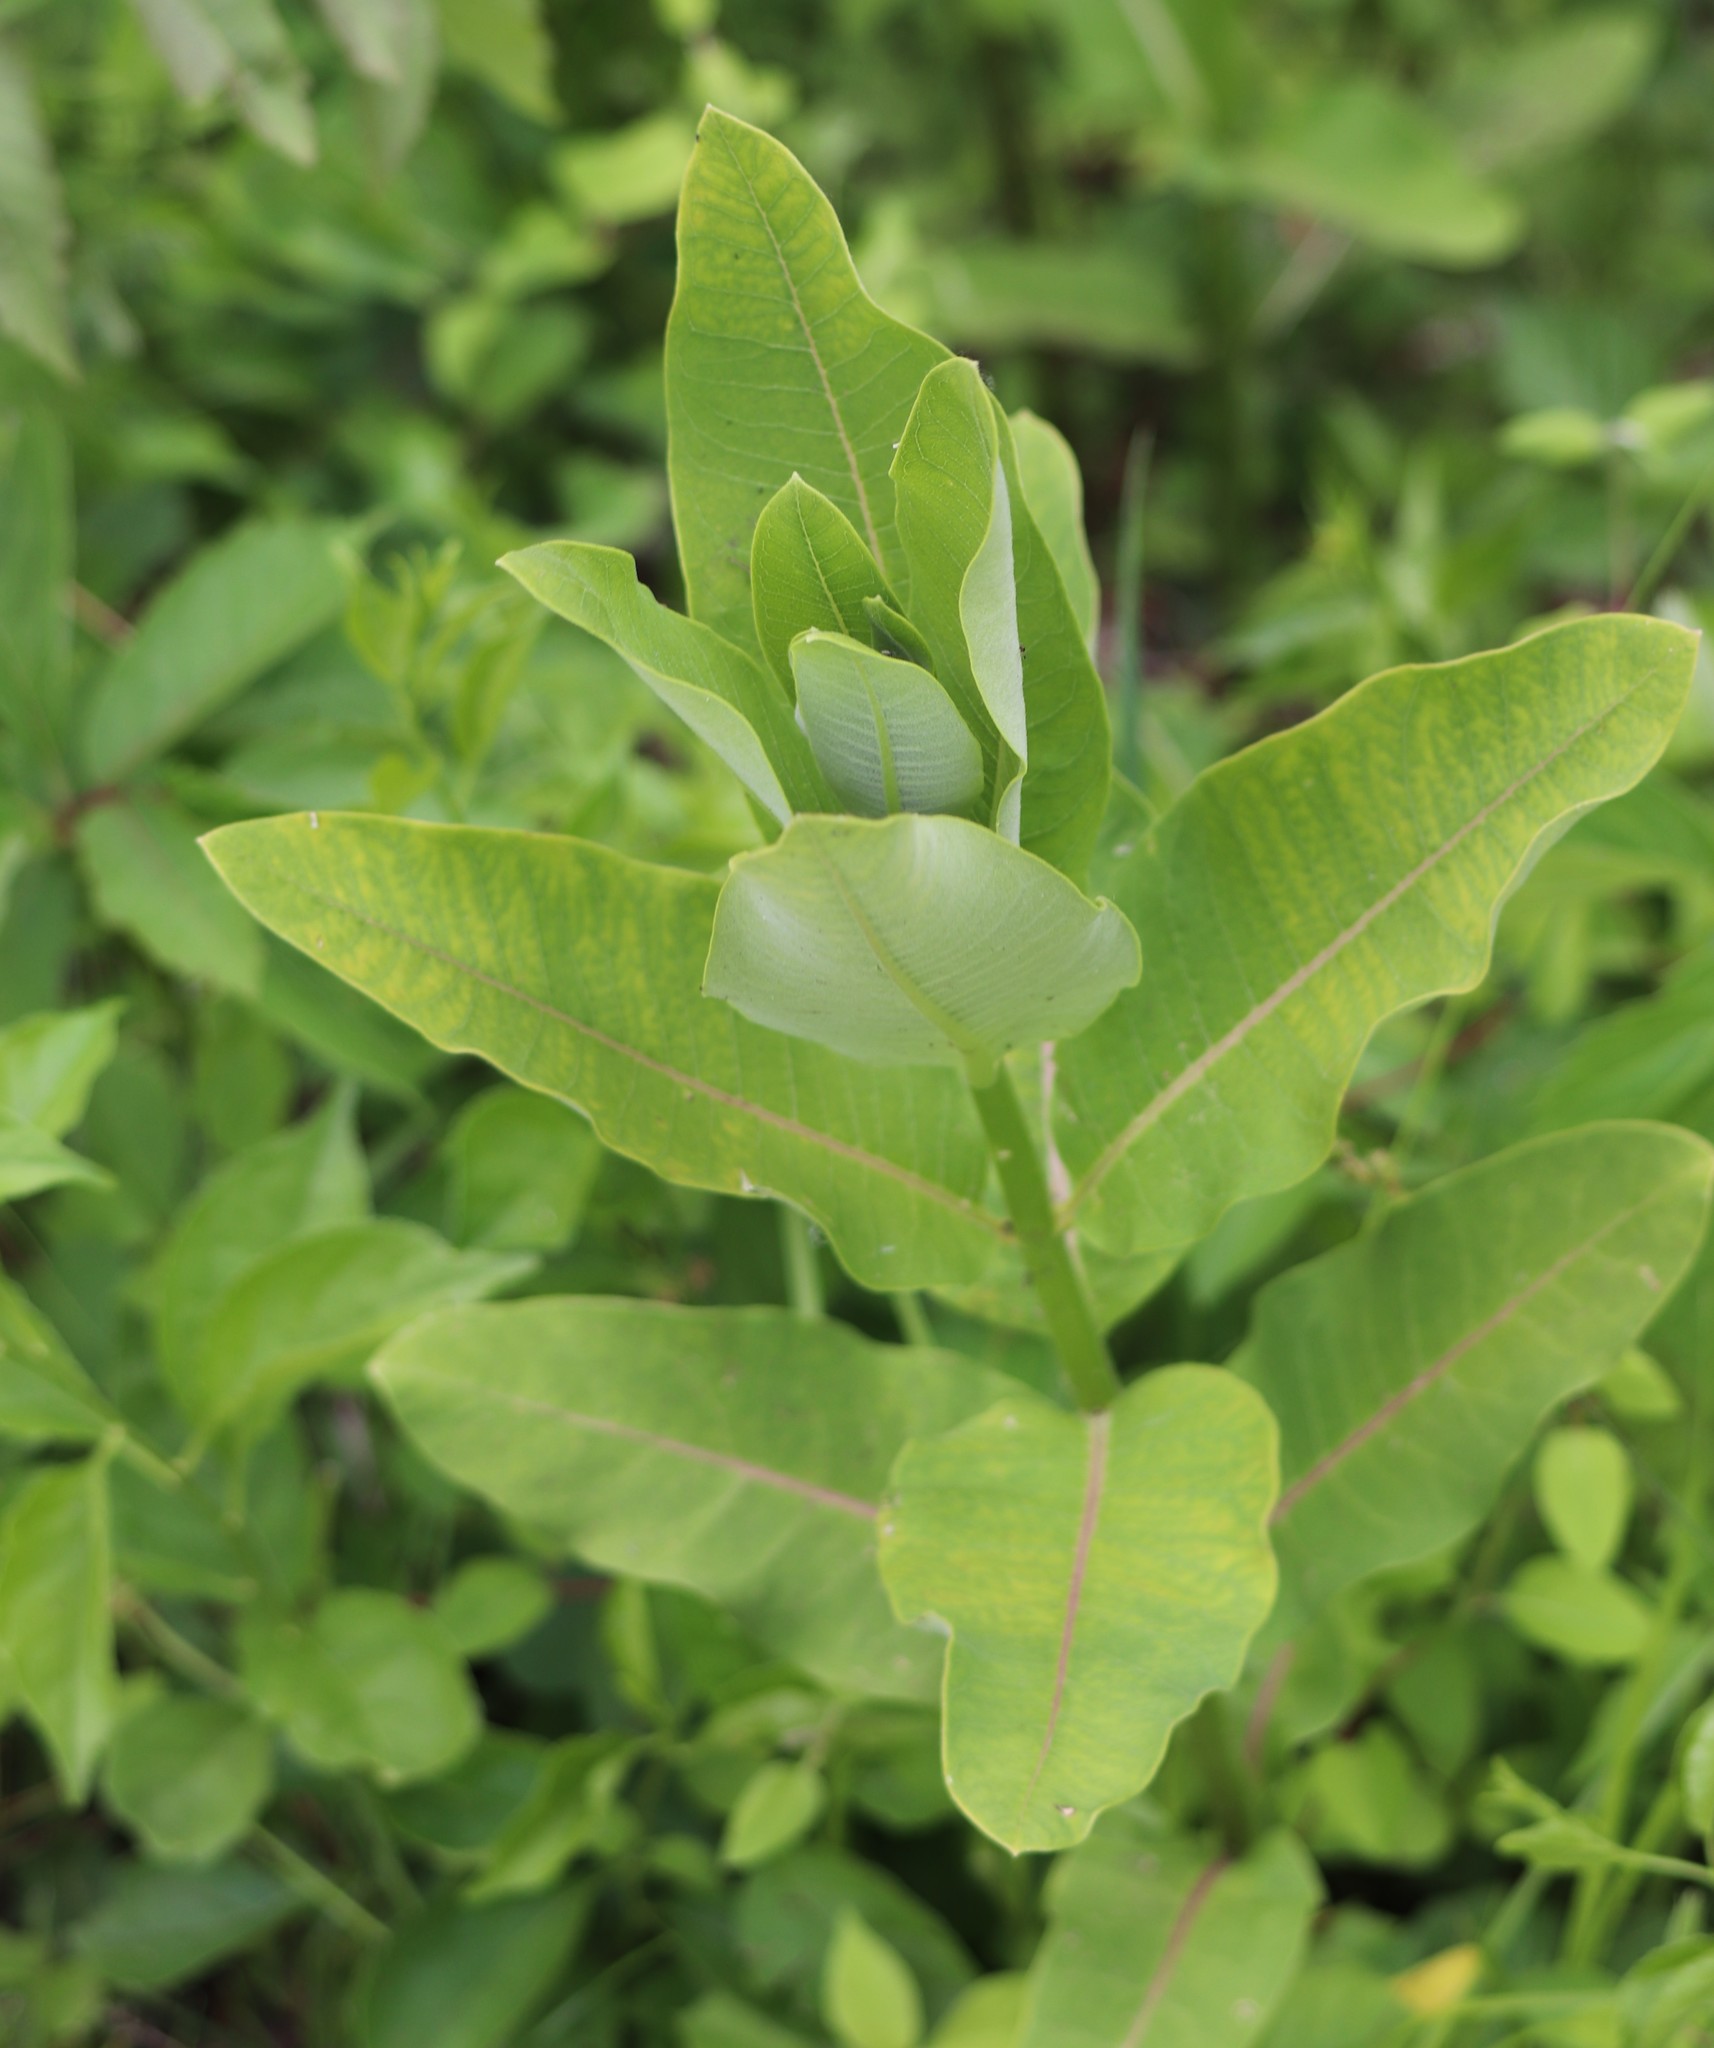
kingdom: Plantae
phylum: Tracheophyta
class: Magnoliopsida
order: Gentianales
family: Apocynaceae
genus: Asclepias
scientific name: Asclepias syriaca
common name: Common milkweed
